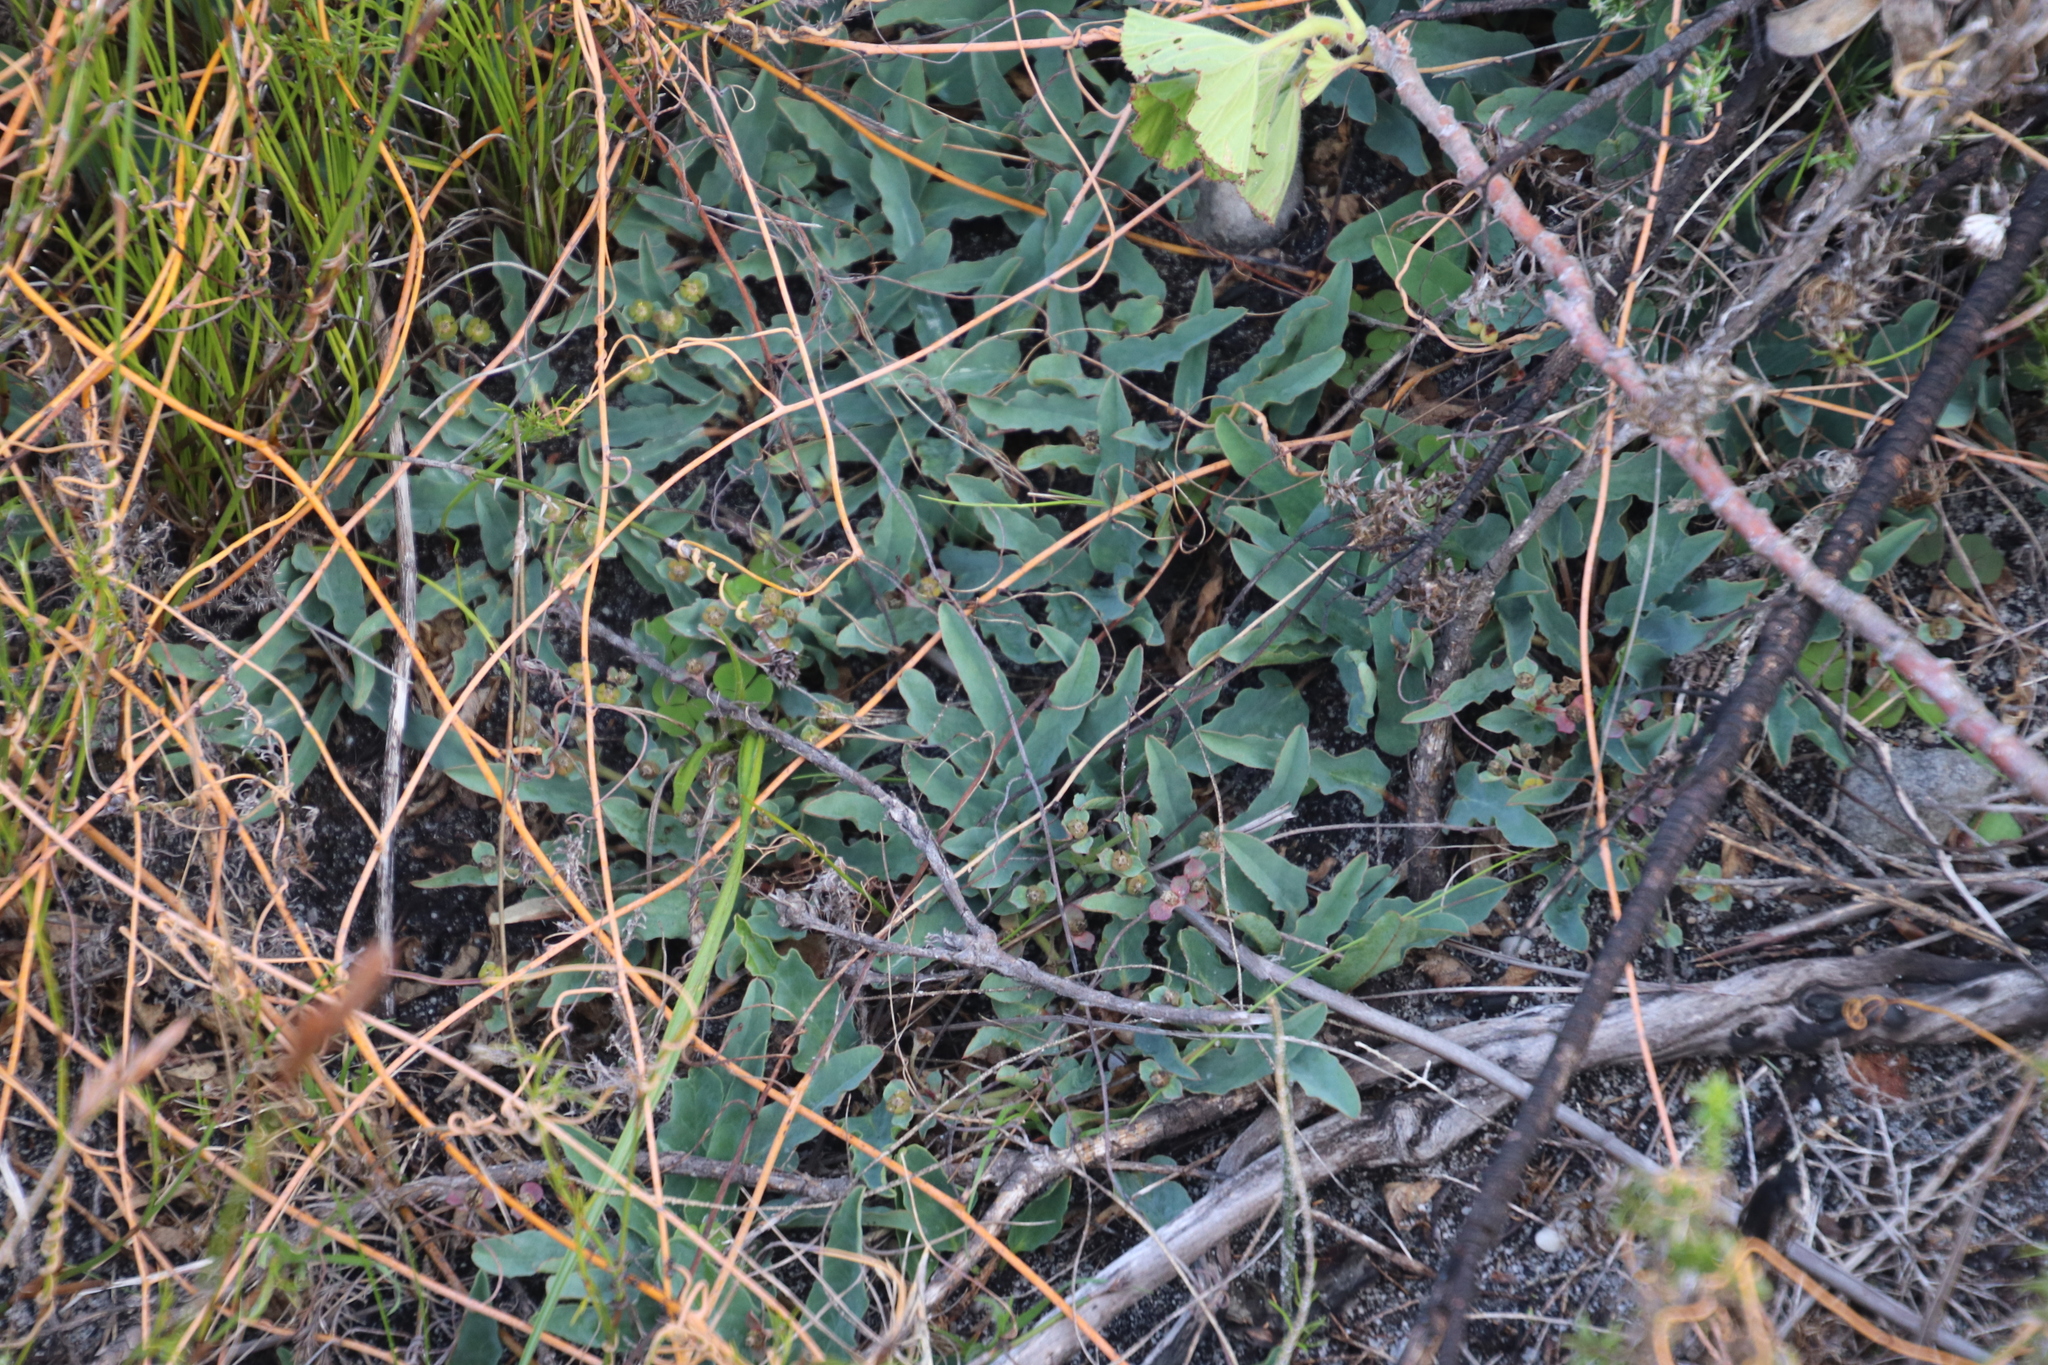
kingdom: Plantae
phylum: Tracheophyta
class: Magnoliopsida
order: Malpighiales
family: Euphorbiaceae
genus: Euphorbia
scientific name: Euphorbia tuberosa
